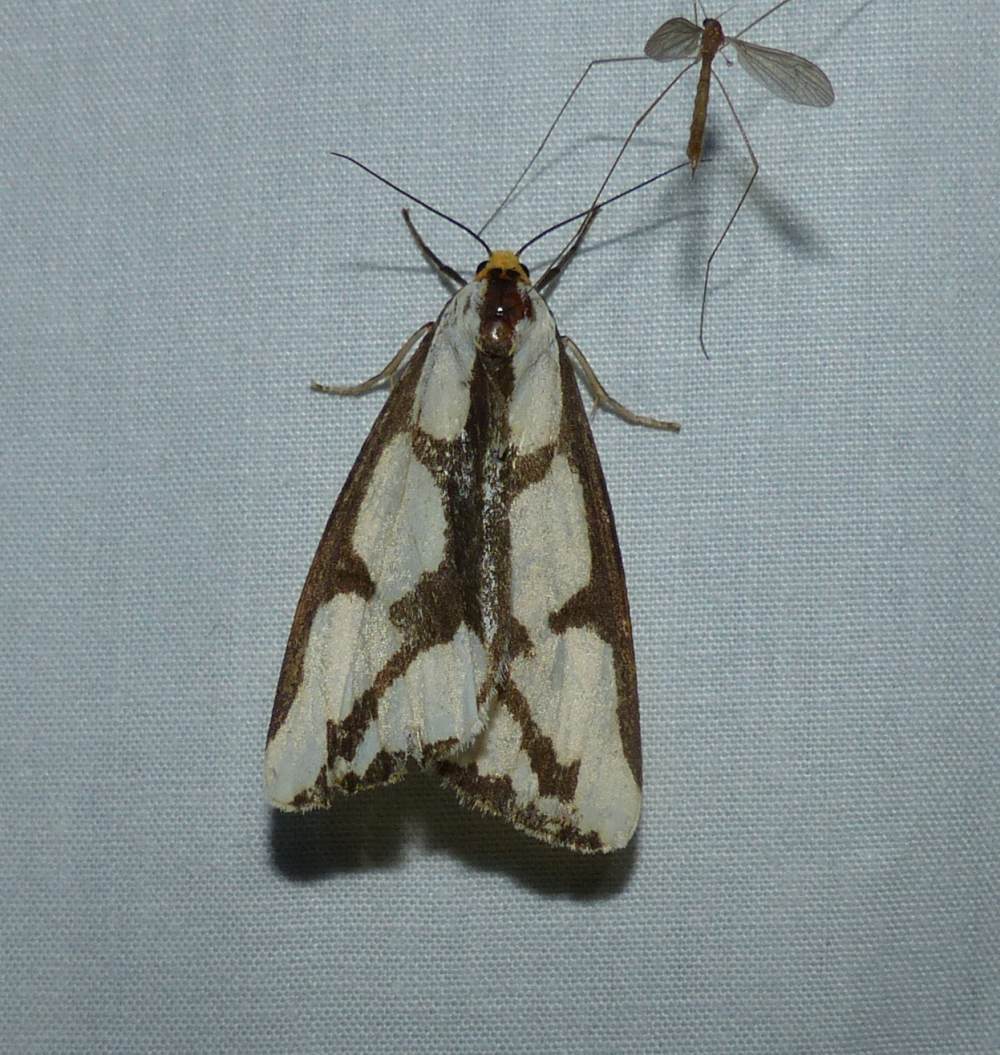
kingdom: Animalia
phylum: Arthropoda
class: Insecta
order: Lepidoptera
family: Erebidae
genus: Haploa
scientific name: Haploa lecontei
